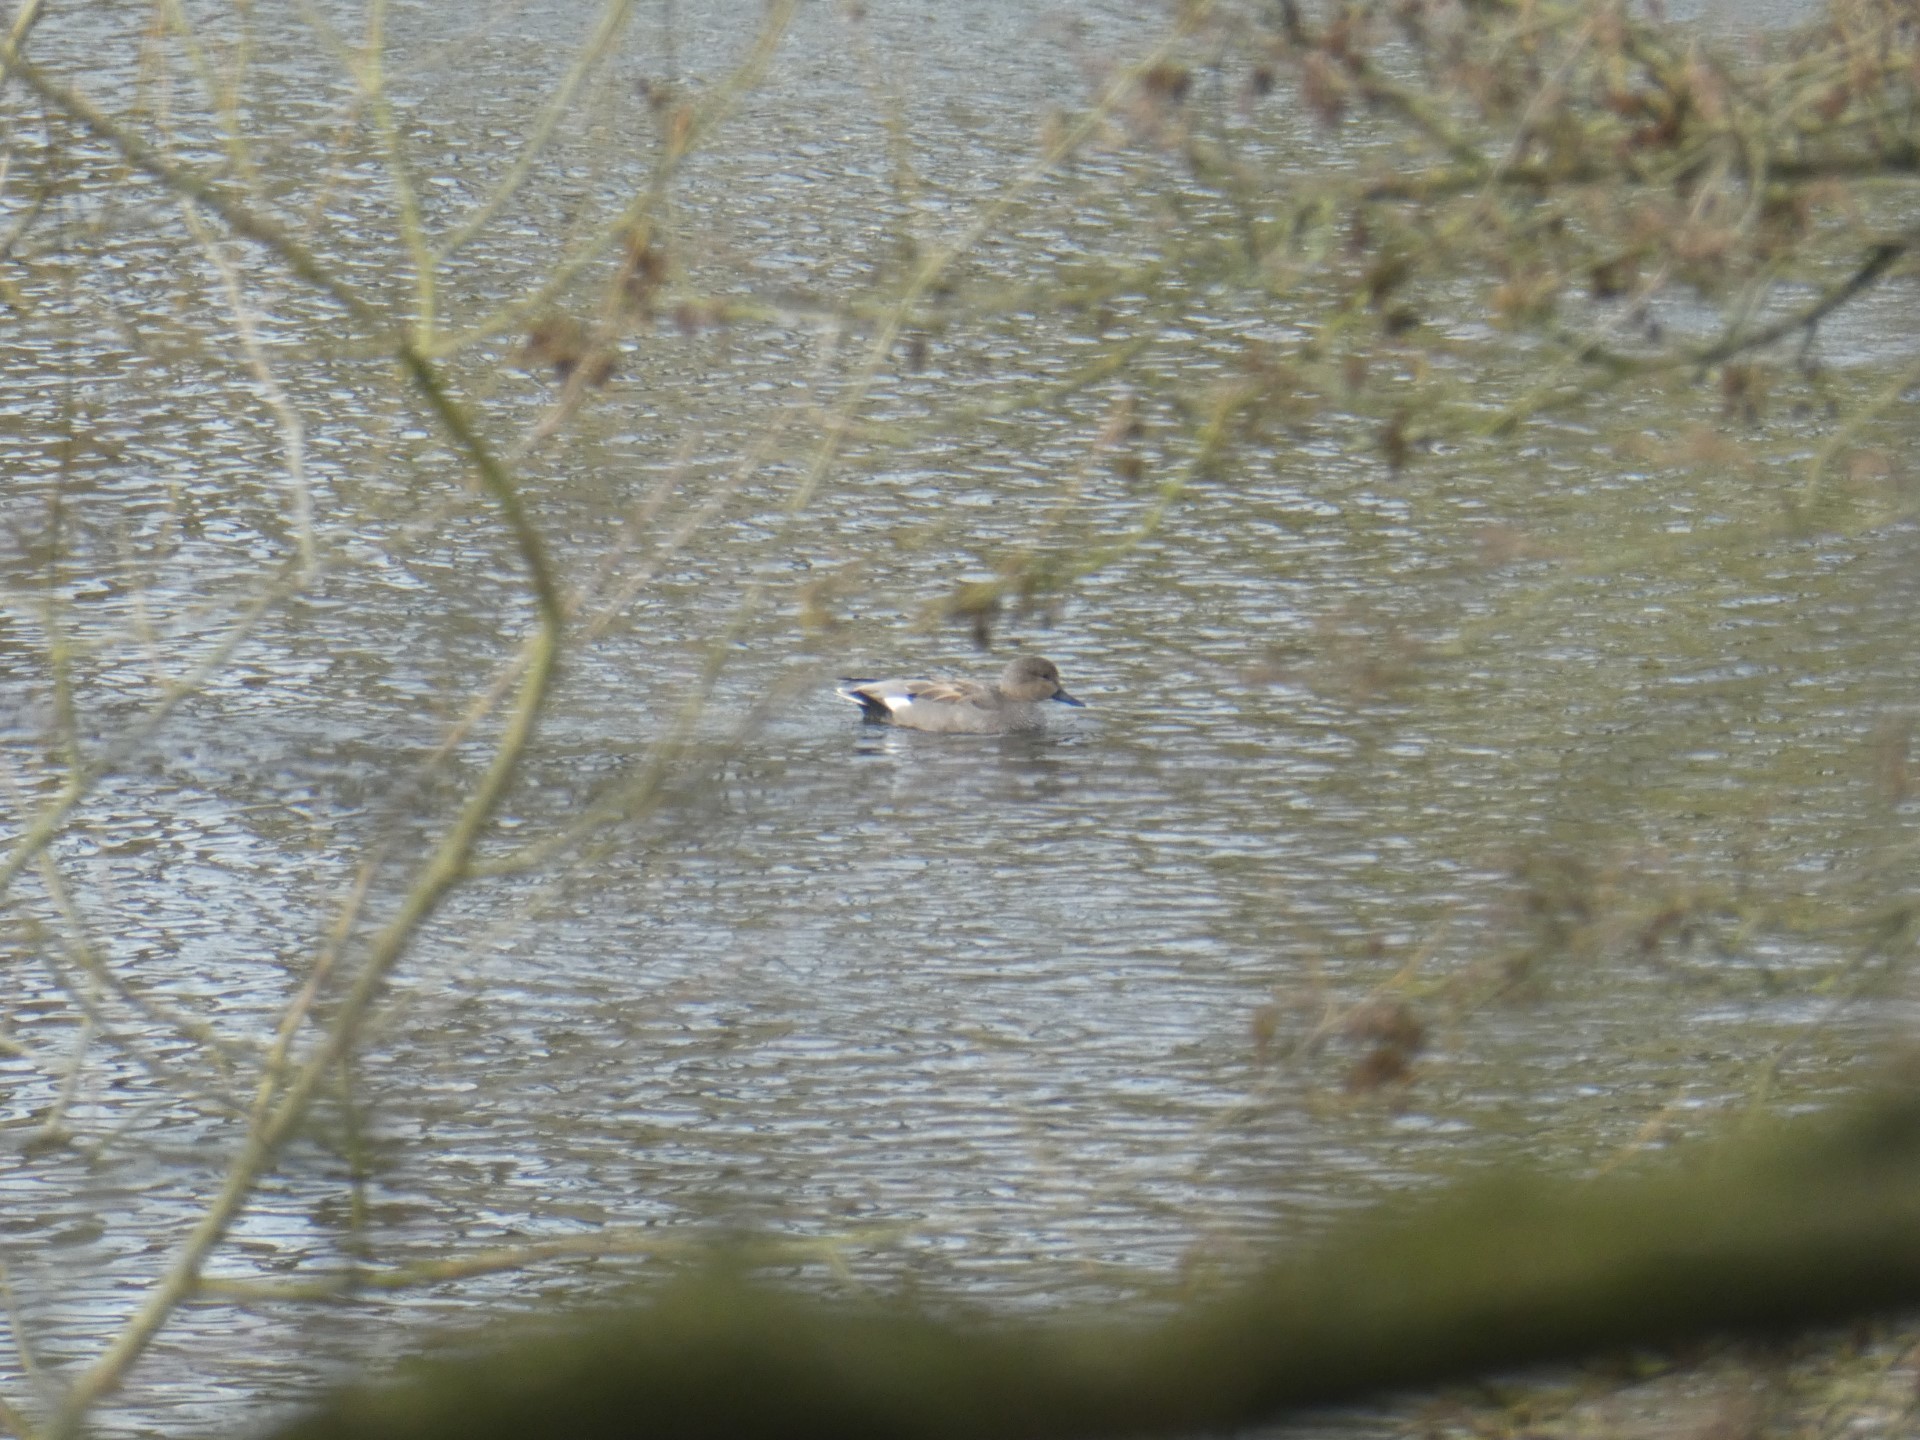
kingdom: Animalia
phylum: Chordata
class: Aves
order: Anseriformes
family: Anatidae
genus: Mareca
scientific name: Mareca strepera
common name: Gadwall
